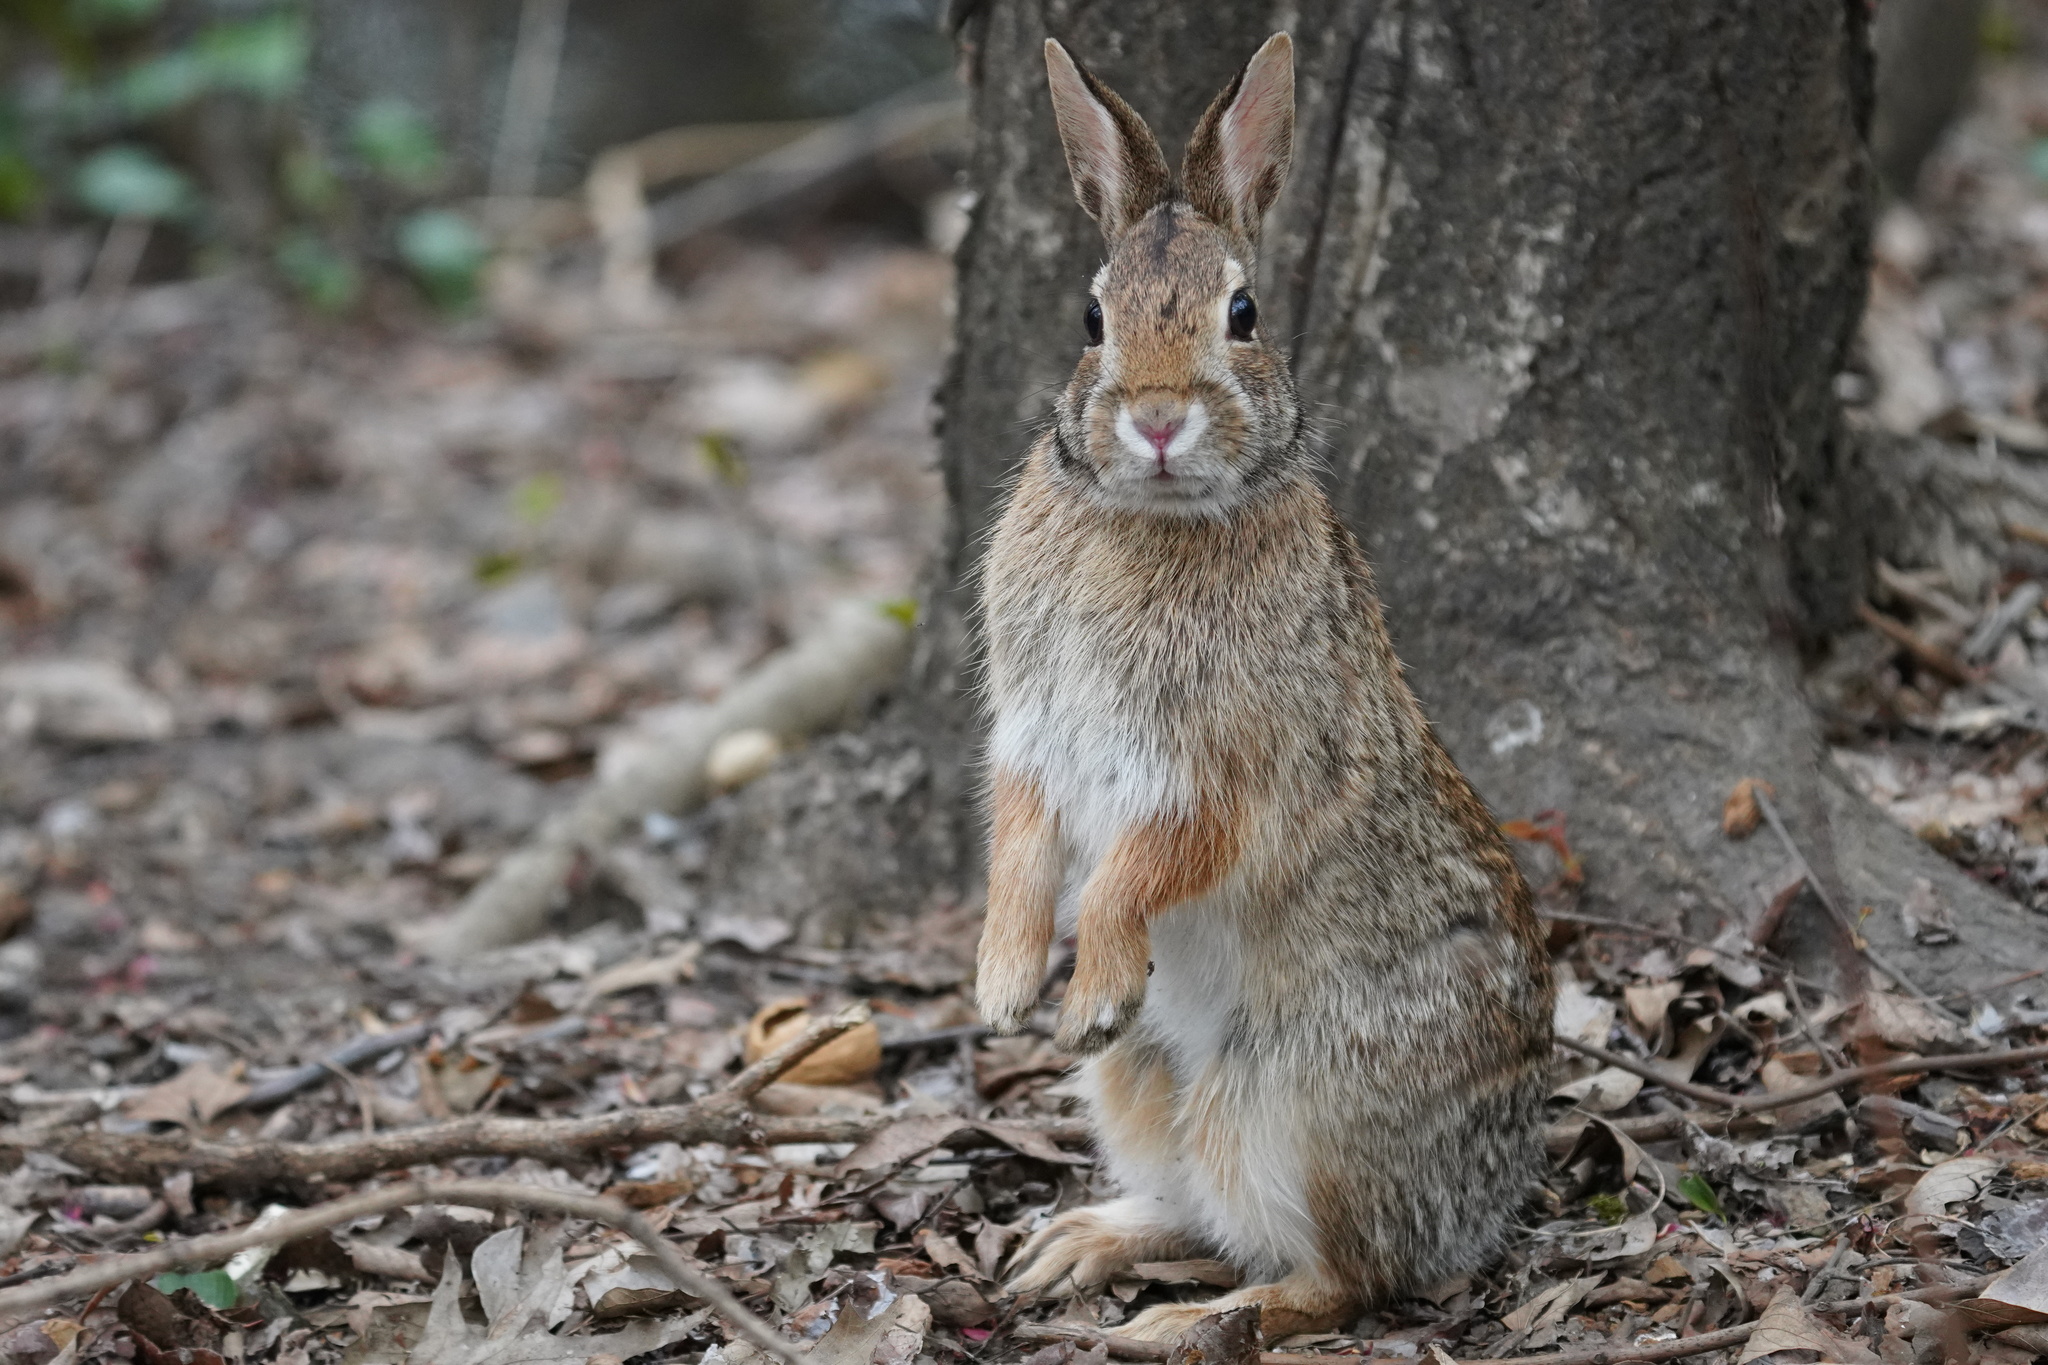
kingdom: Animalia
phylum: Chordata
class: Mammalia
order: Lagomorpha
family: Leporidae
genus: Sylvilagus
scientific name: Sylvilagus floridanus
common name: Eastern cottontail
